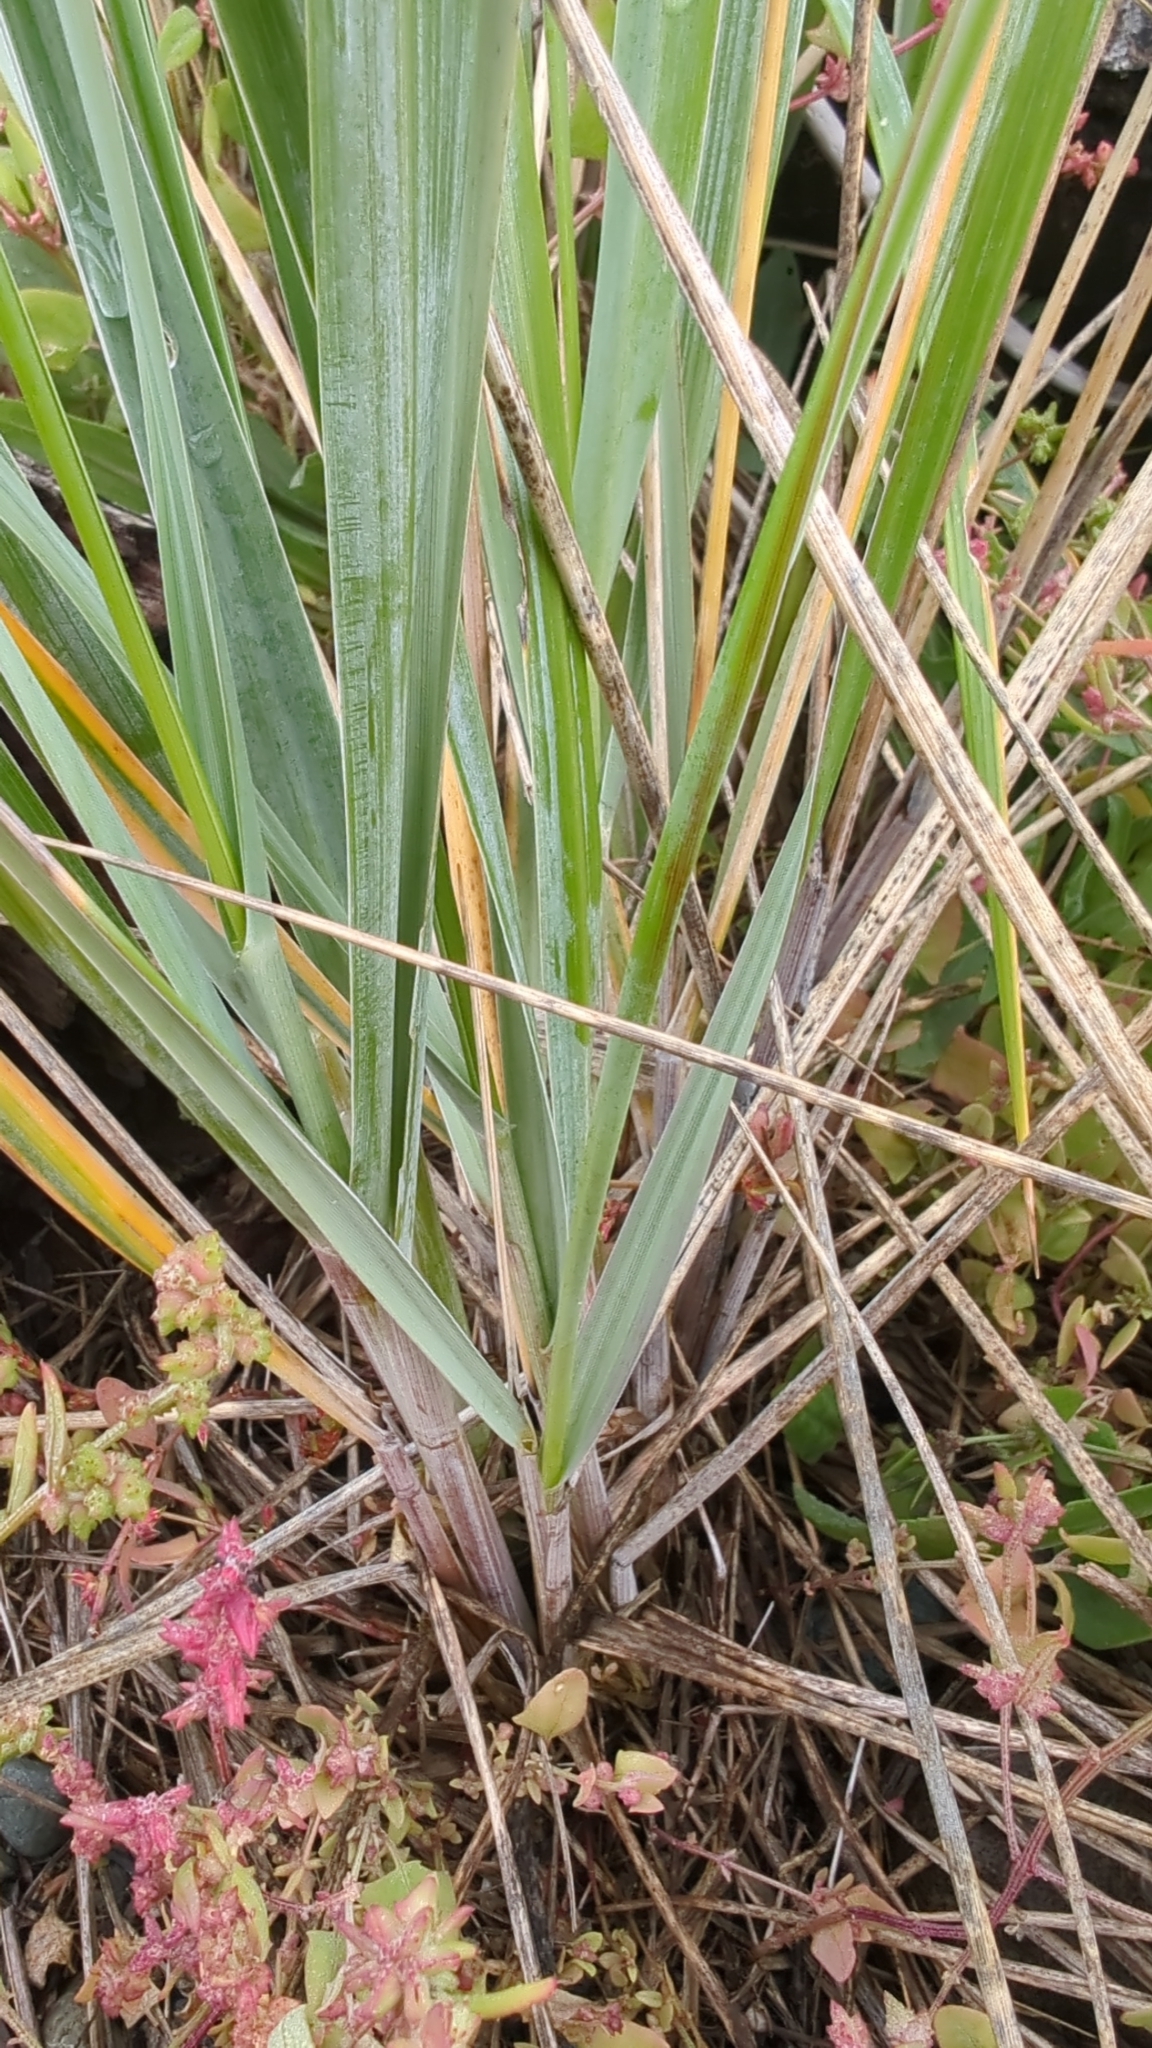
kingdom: Plantae
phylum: Tracheophyta
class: Liliopsida
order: Poales
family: Poaceae
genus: Leymus
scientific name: Leymus mollis
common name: American dune grass
